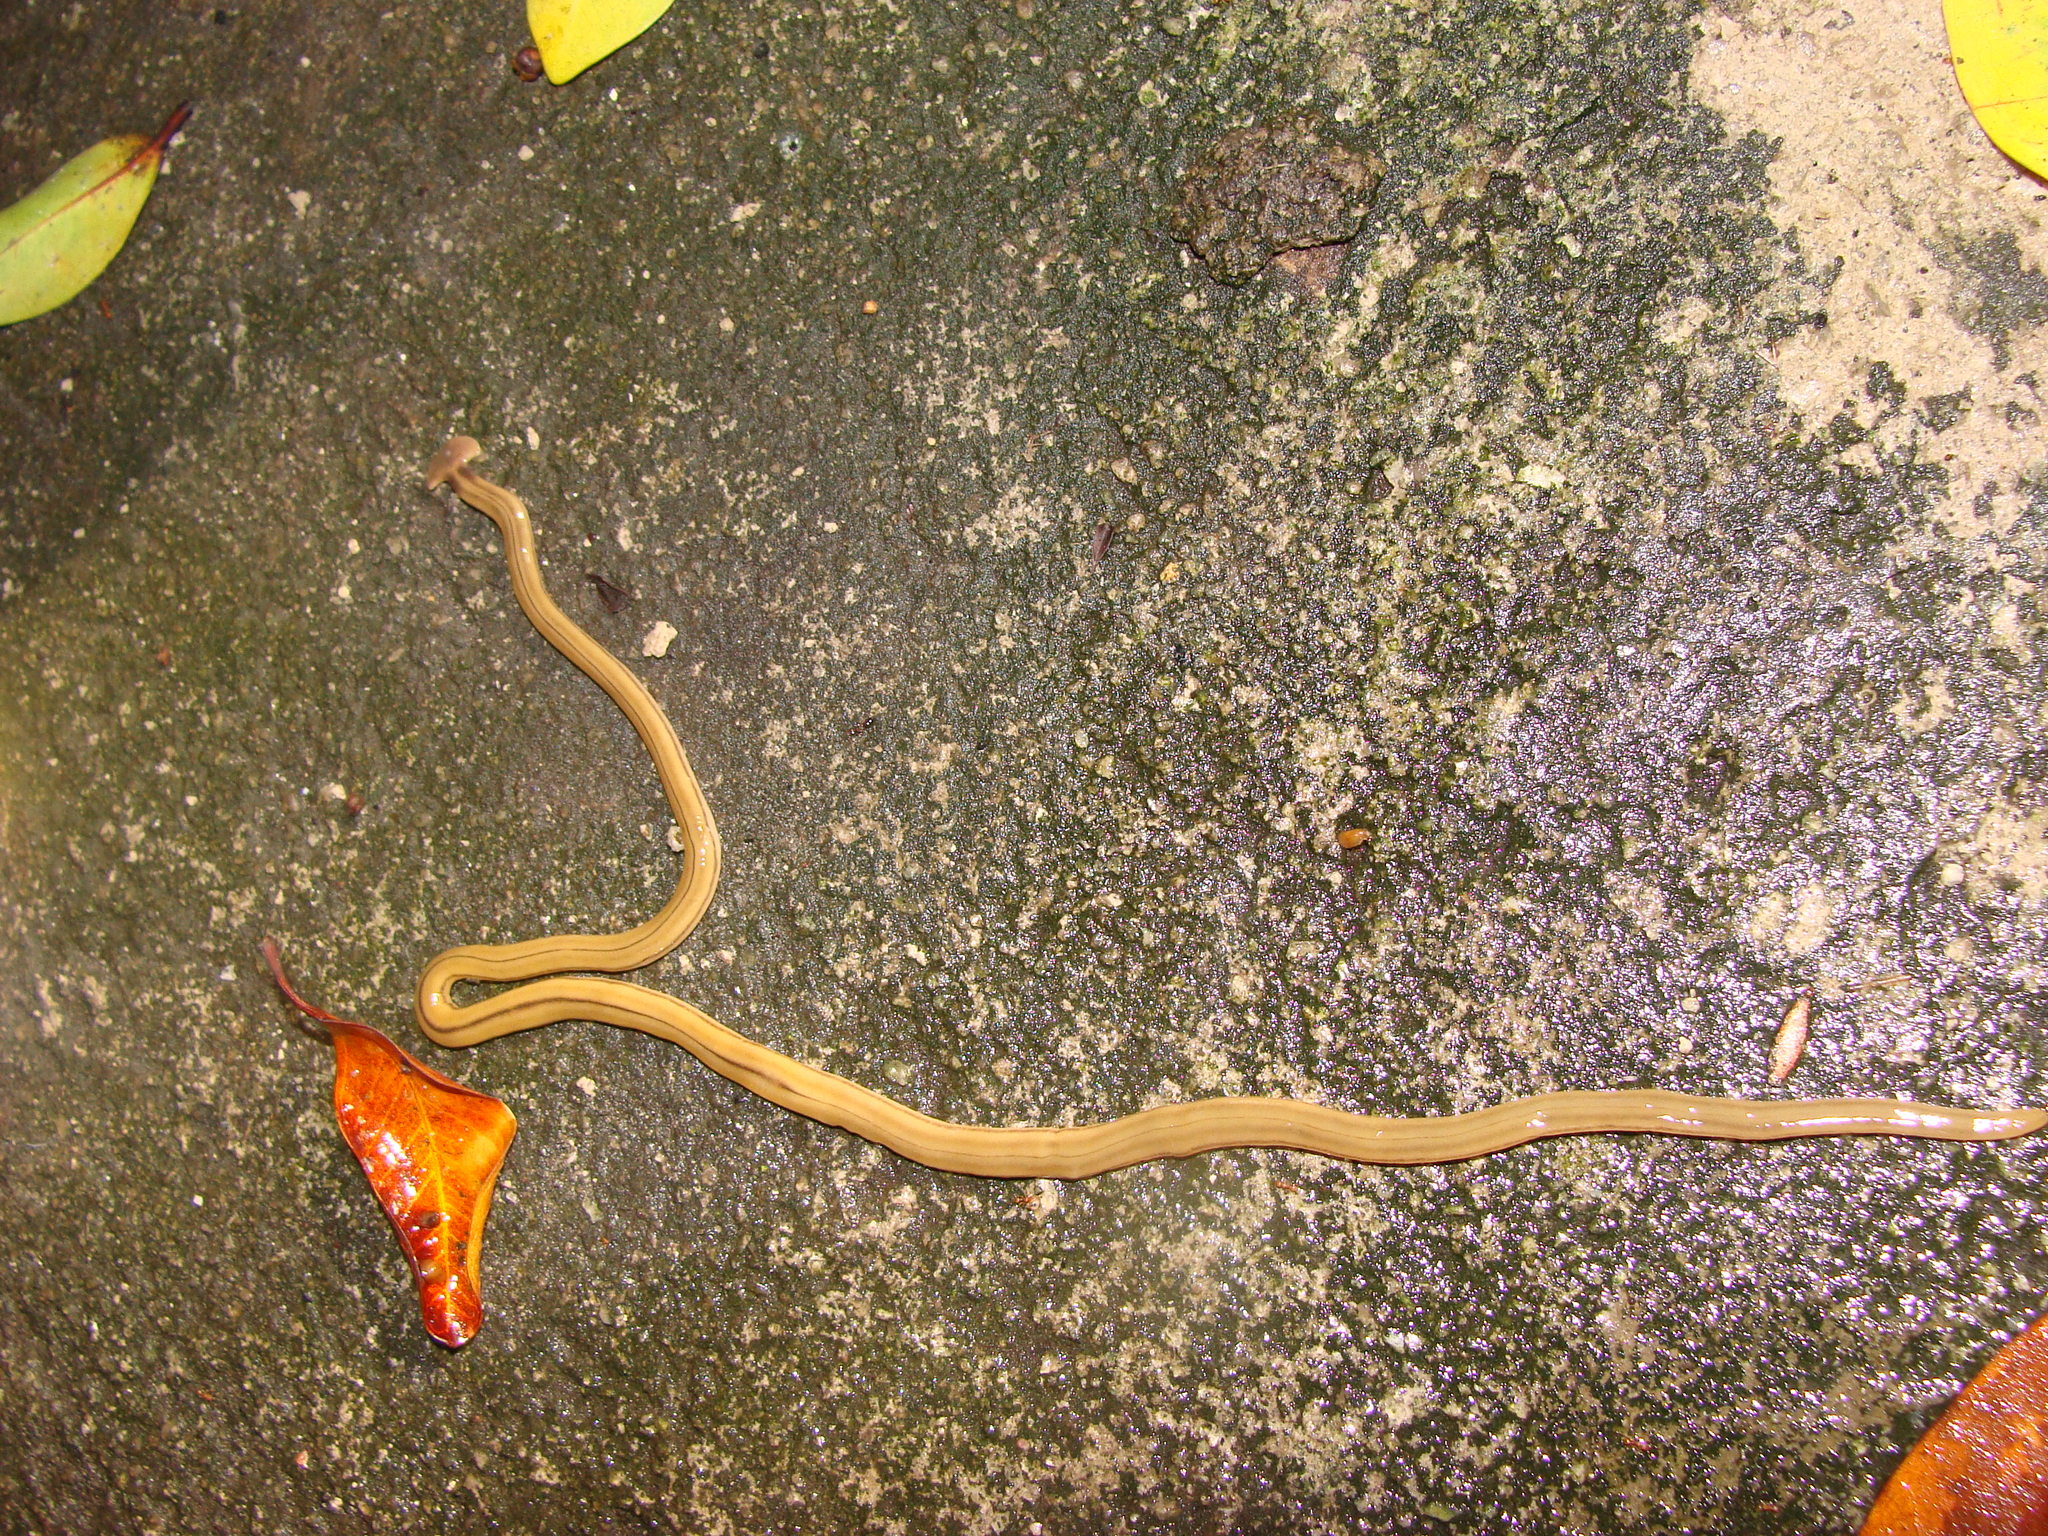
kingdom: Animalia
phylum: Platyhelminthes
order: Tricladida
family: Geoplanidae
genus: Bipalium
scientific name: Bipalium kewense
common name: Hammerhead flatworm
